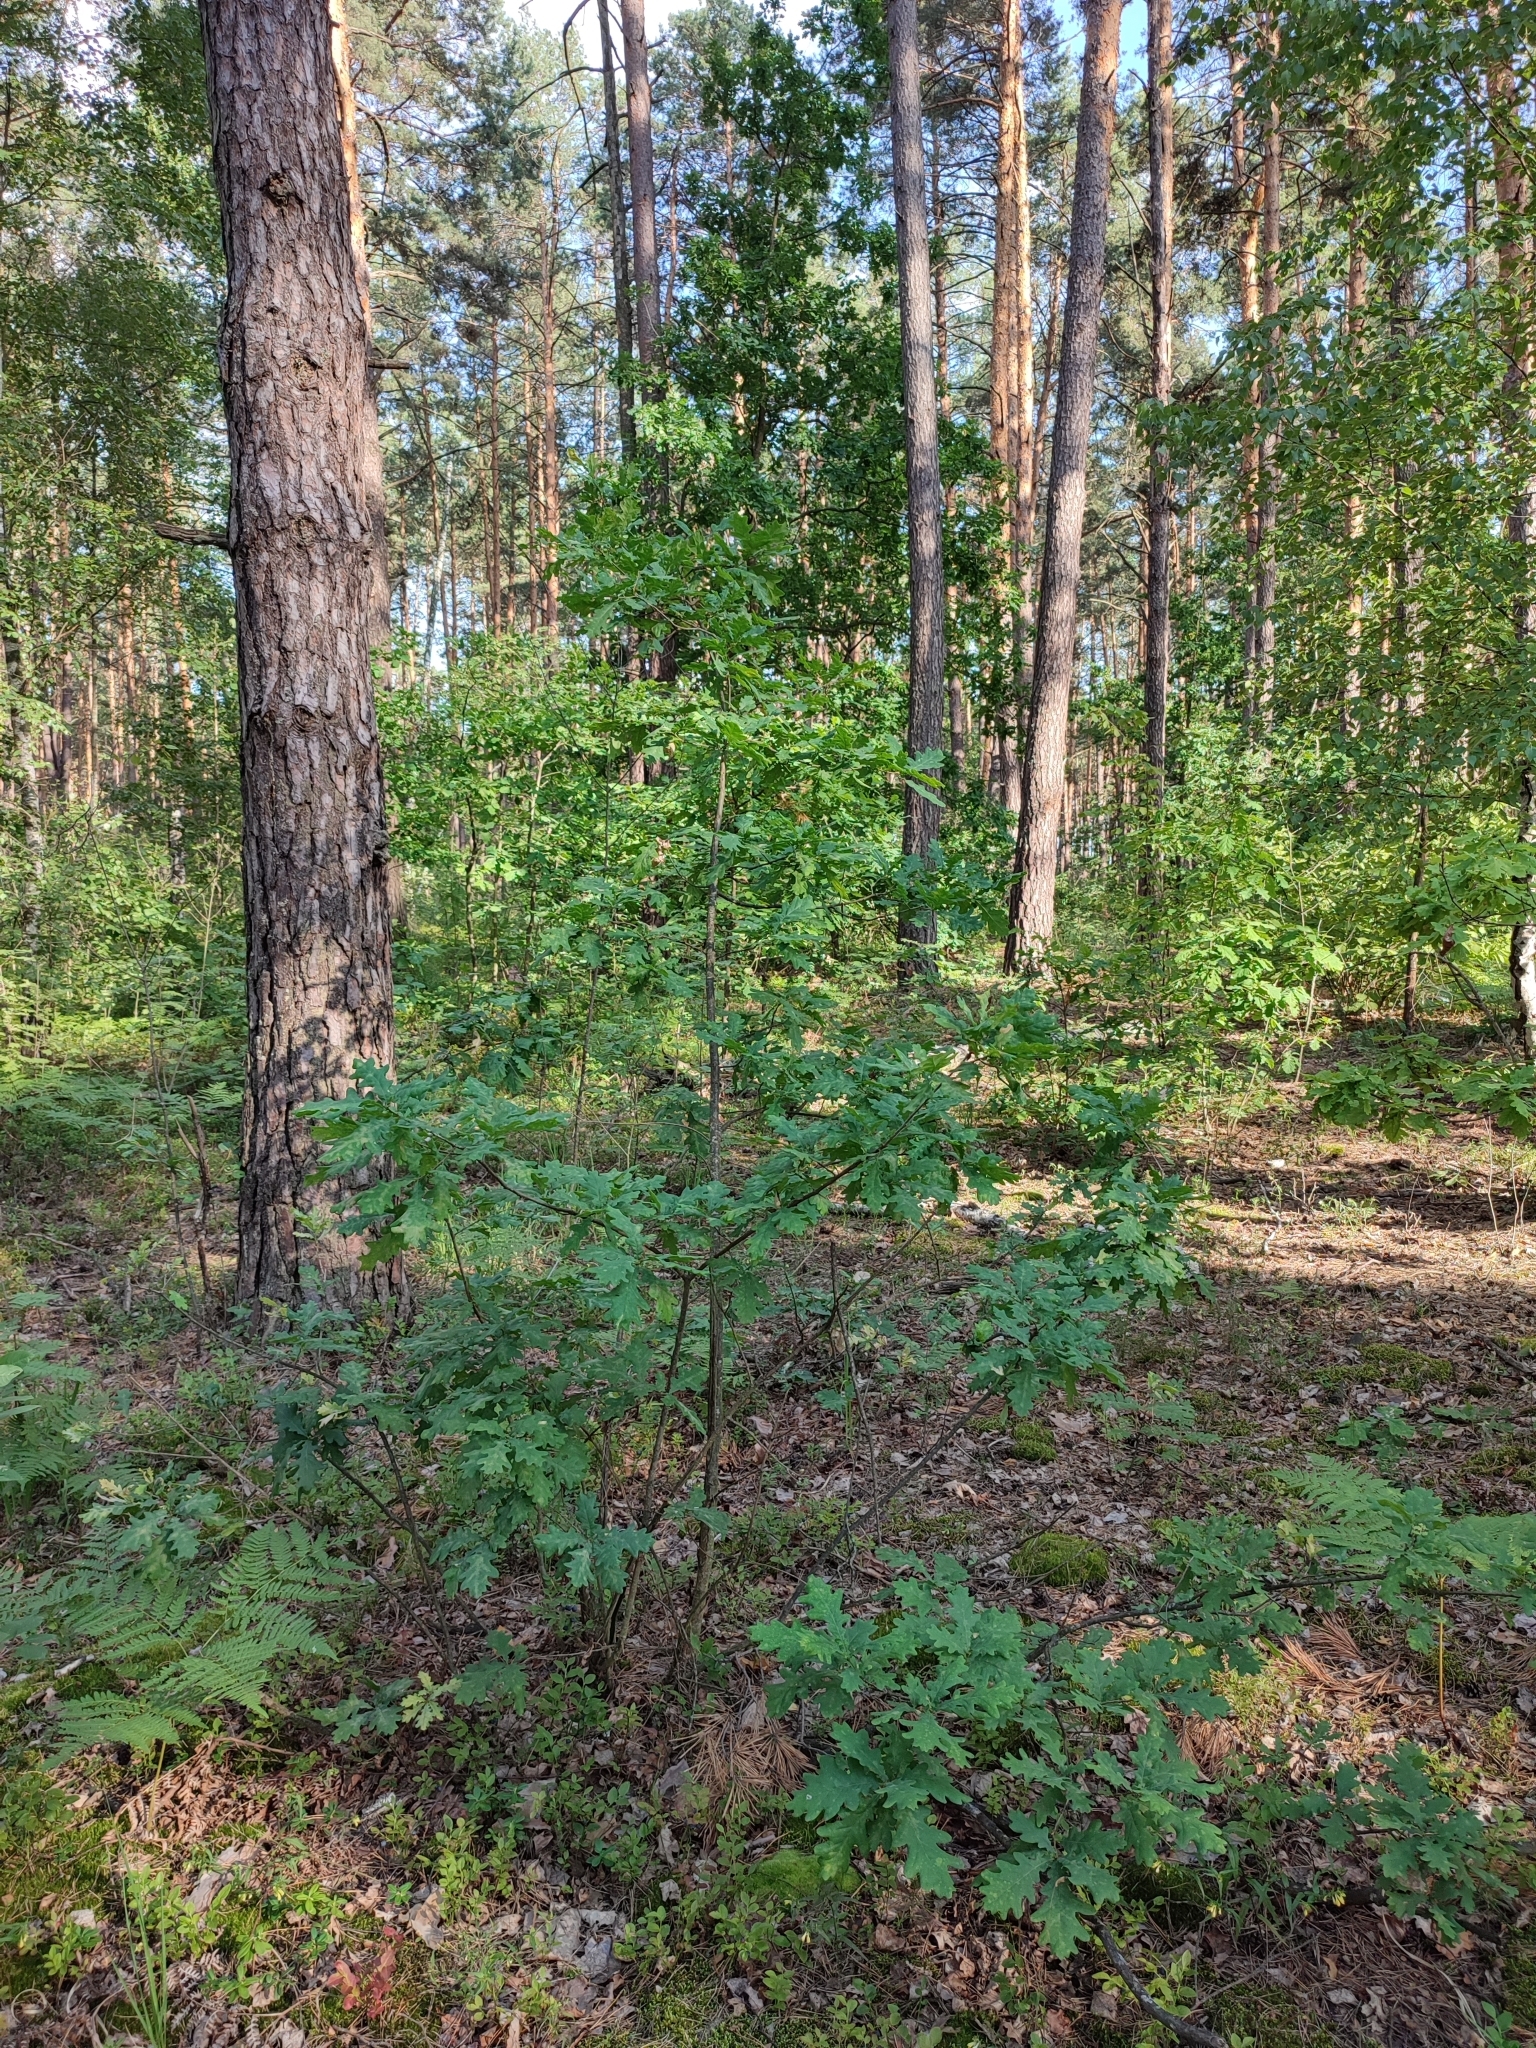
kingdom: Plantae
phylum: Tracheophyta
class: Magnoliopsida
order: Fagales
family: Fagaceae
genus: Quercus
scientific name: Quercus robur
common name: Pedunculate oak
